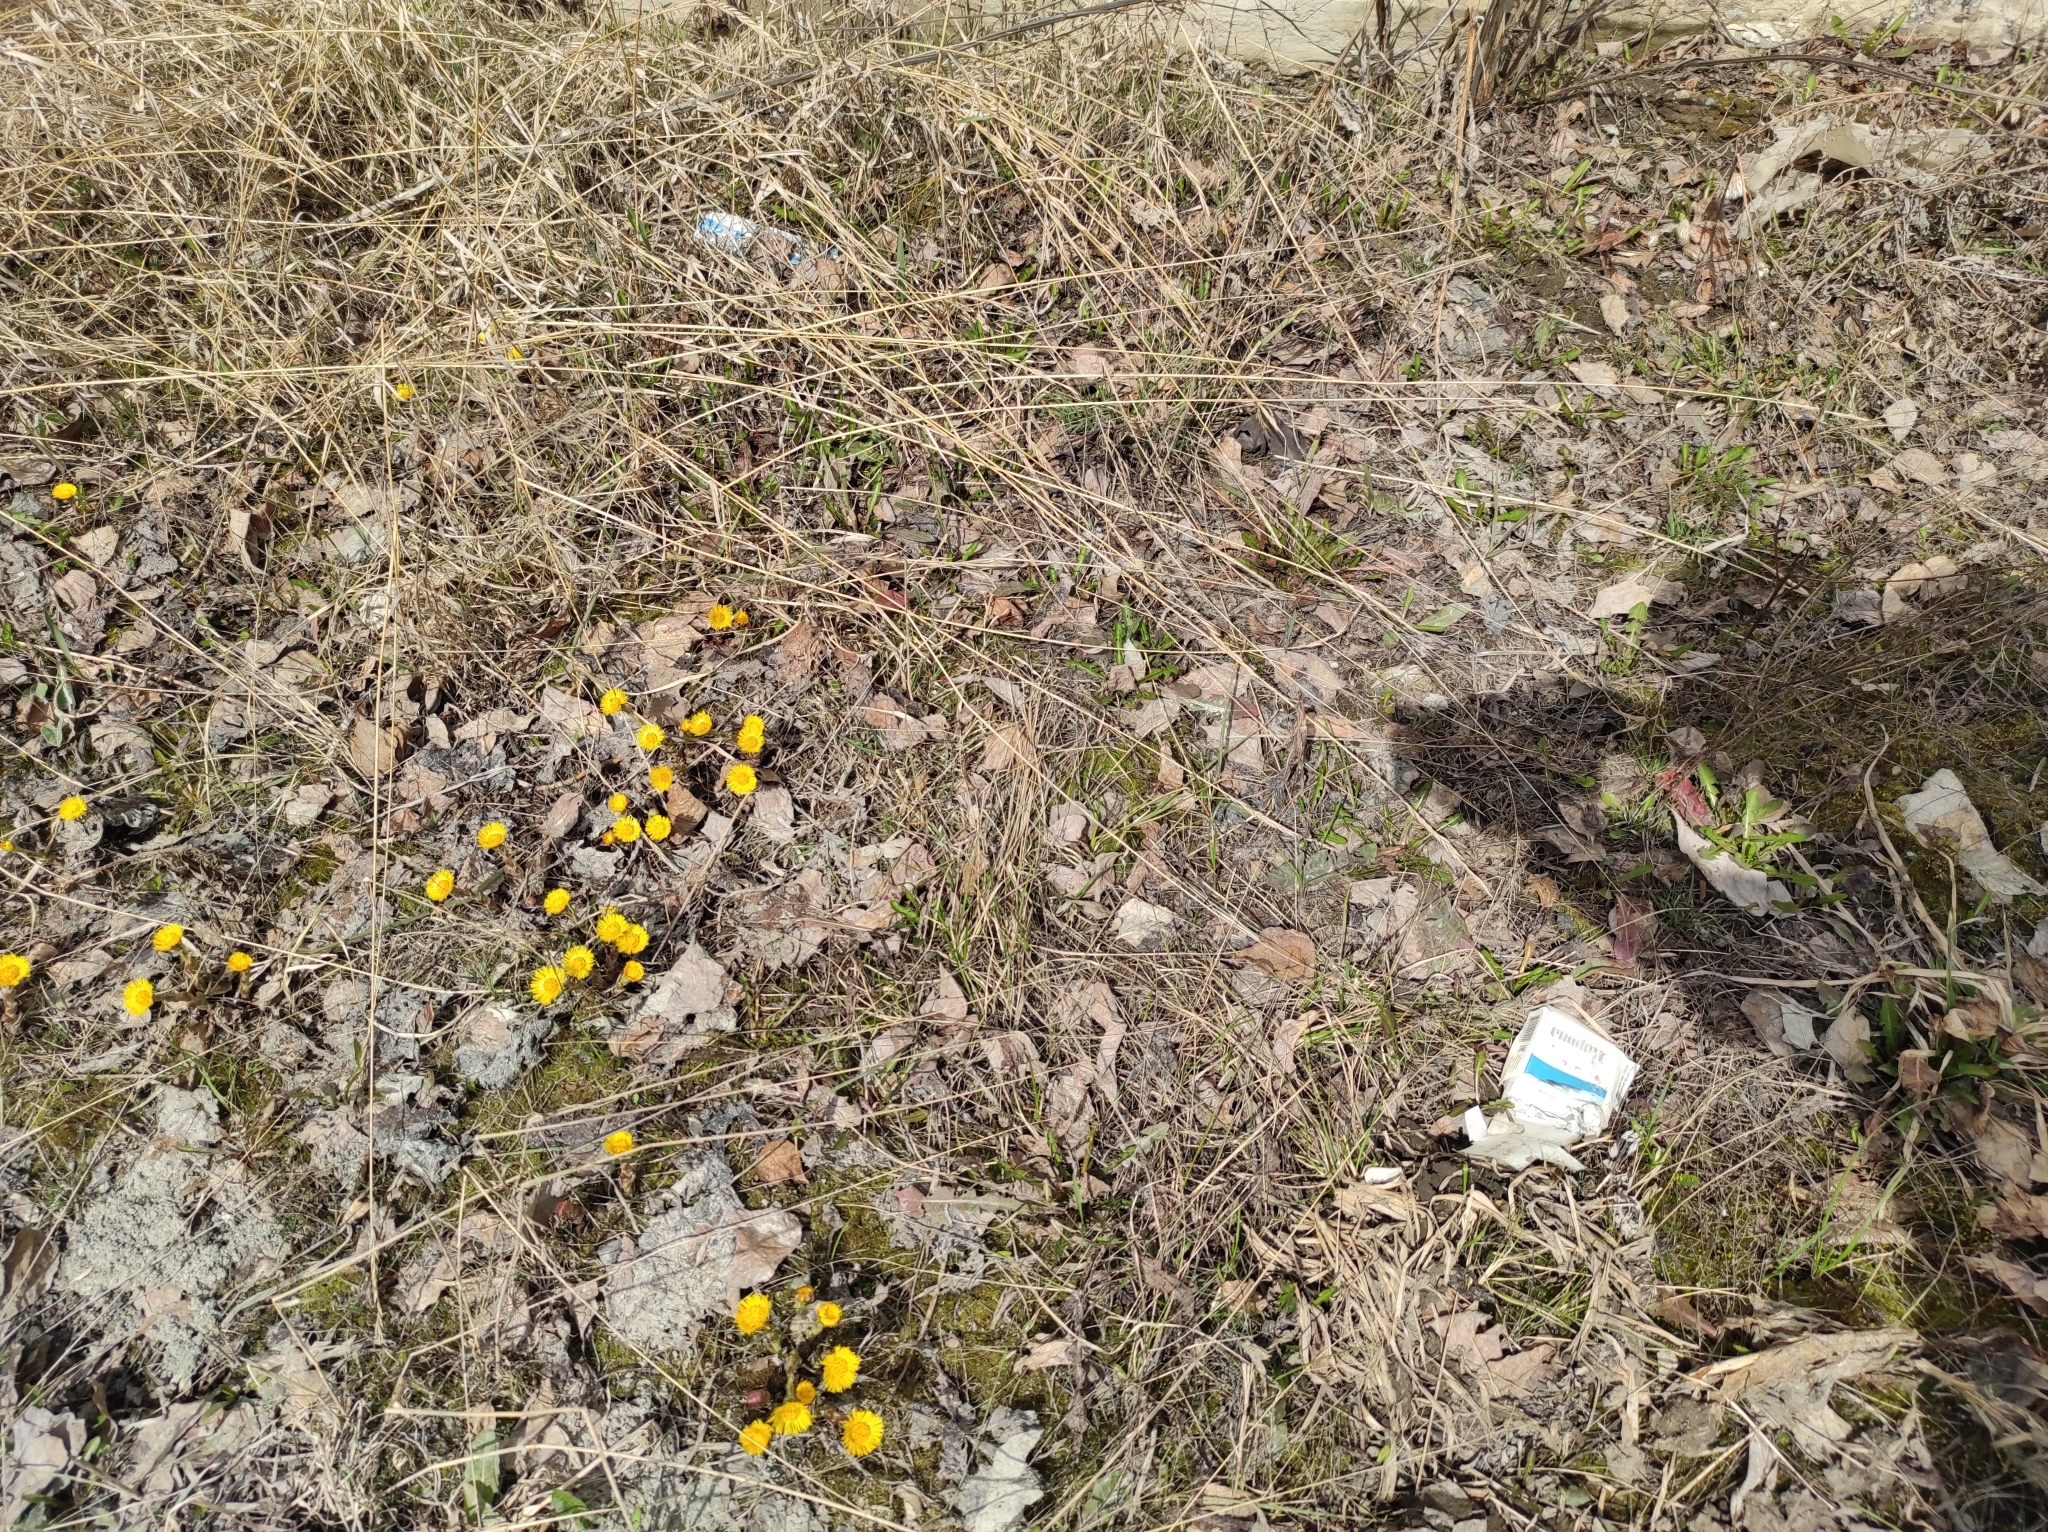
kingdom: Plantae
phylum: Tracheophyta
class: Magnoliopsida
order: Asterales
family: Asteraceae
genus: Tussilago
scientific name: Tussilago farfara
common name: Coltsfoot
